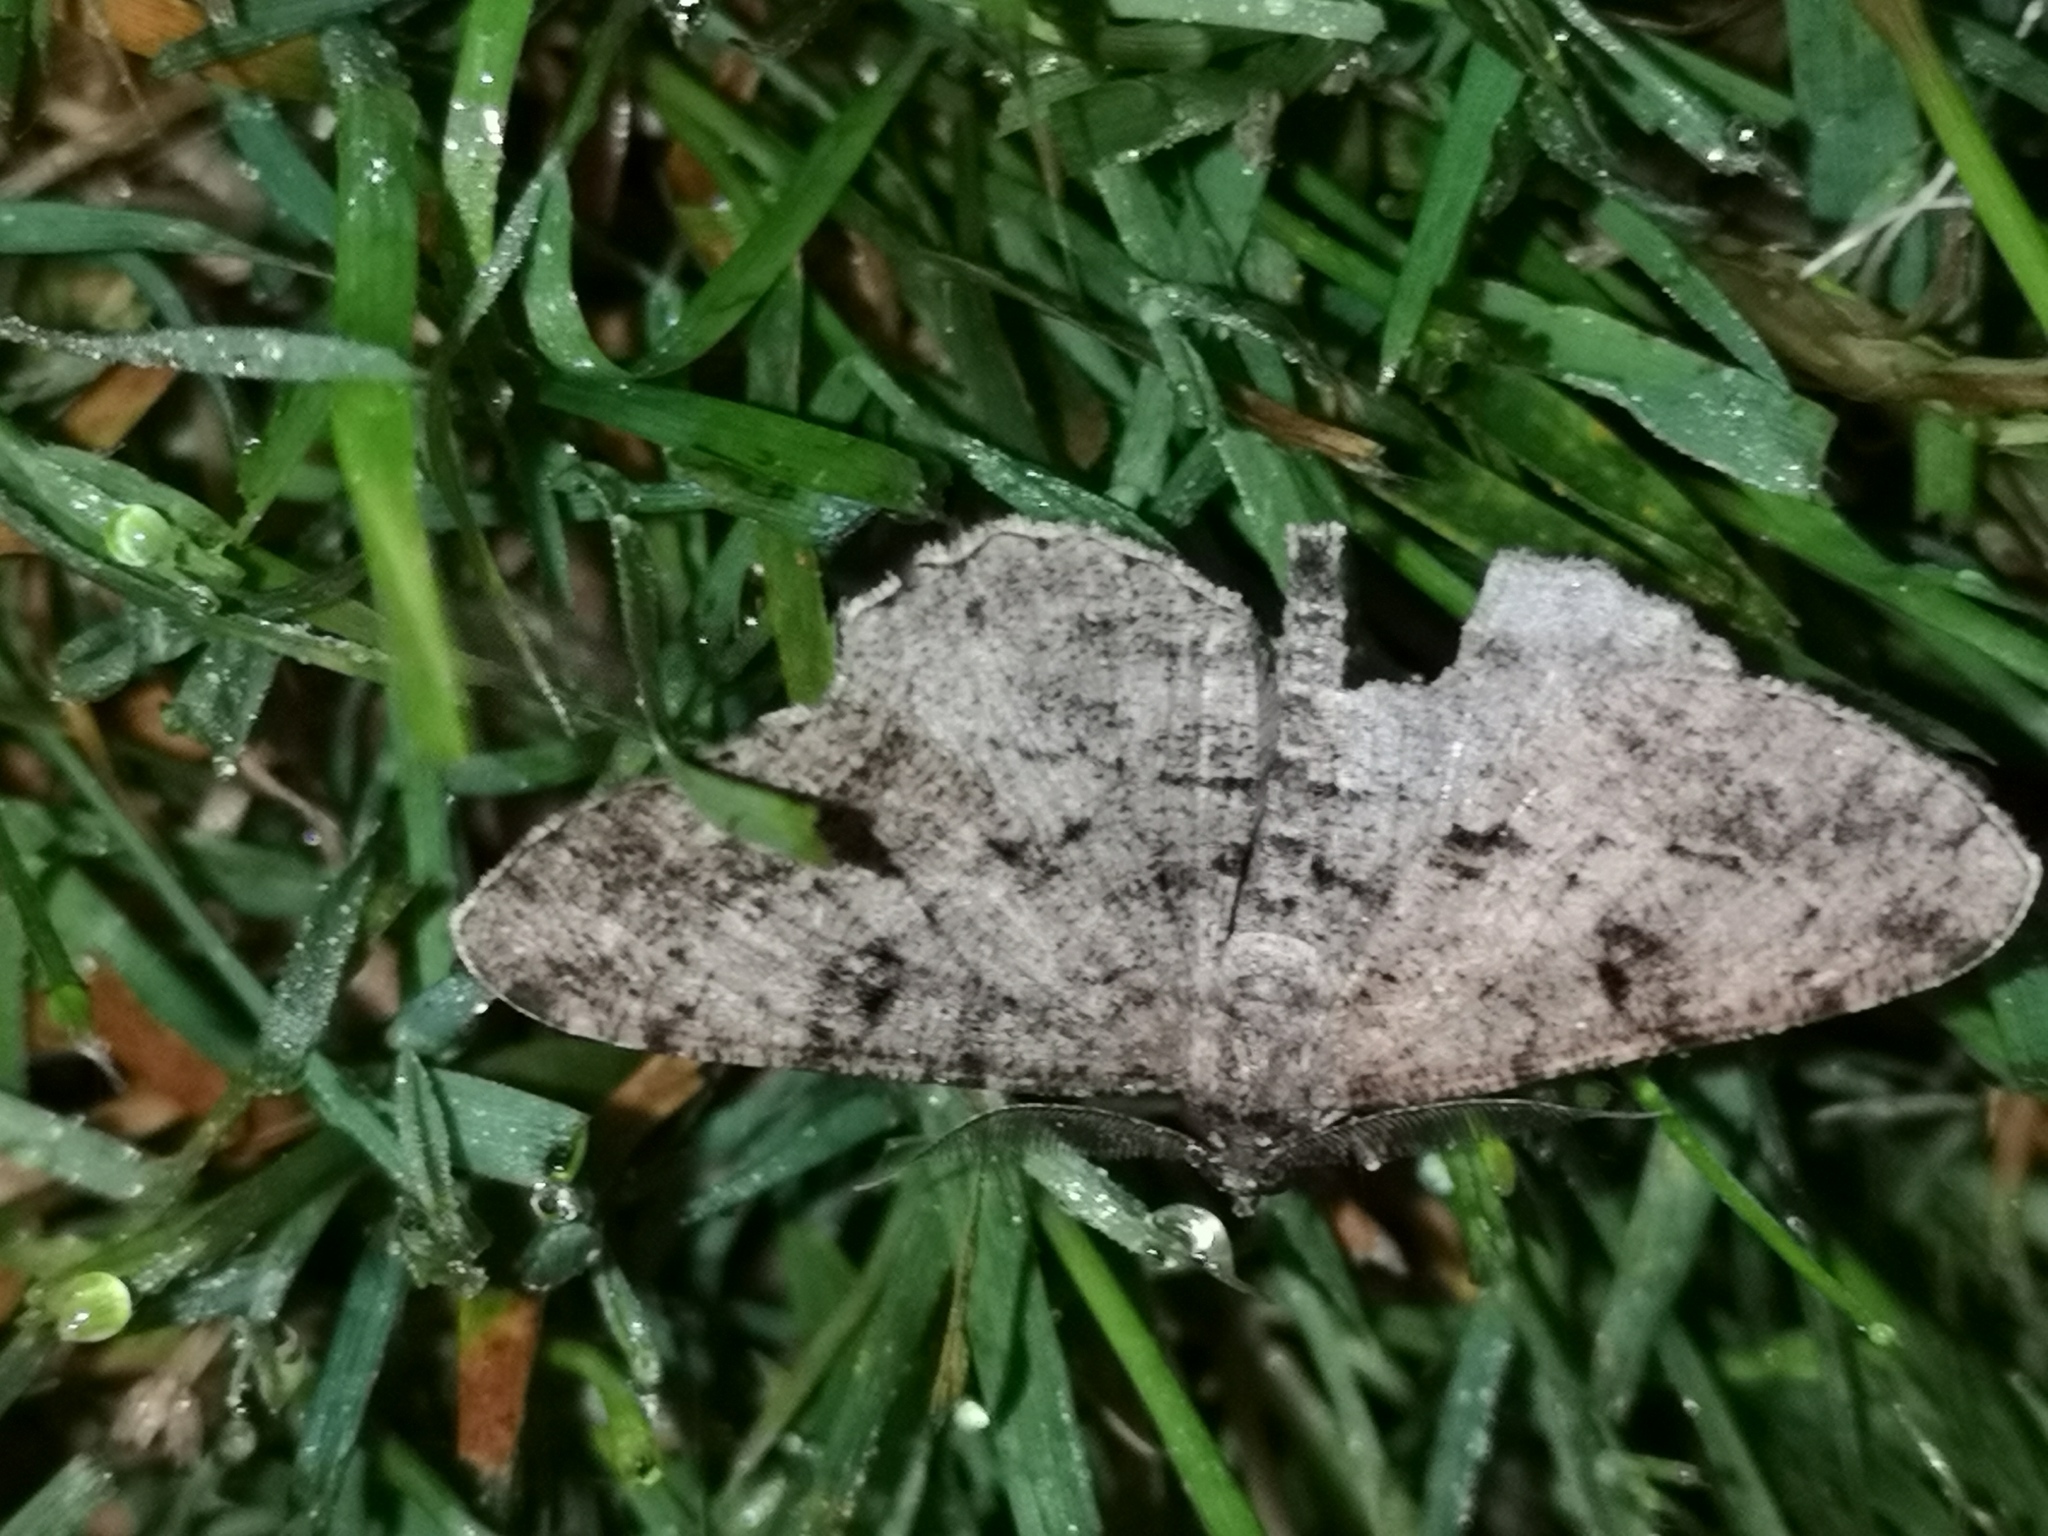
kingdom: Animalia
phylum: Arthropoda
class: Insecta
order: Lepidoptera
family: Geometridae
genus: Peribatodes
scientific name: Peribatodes rhomboidaria
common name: Willow beauty
